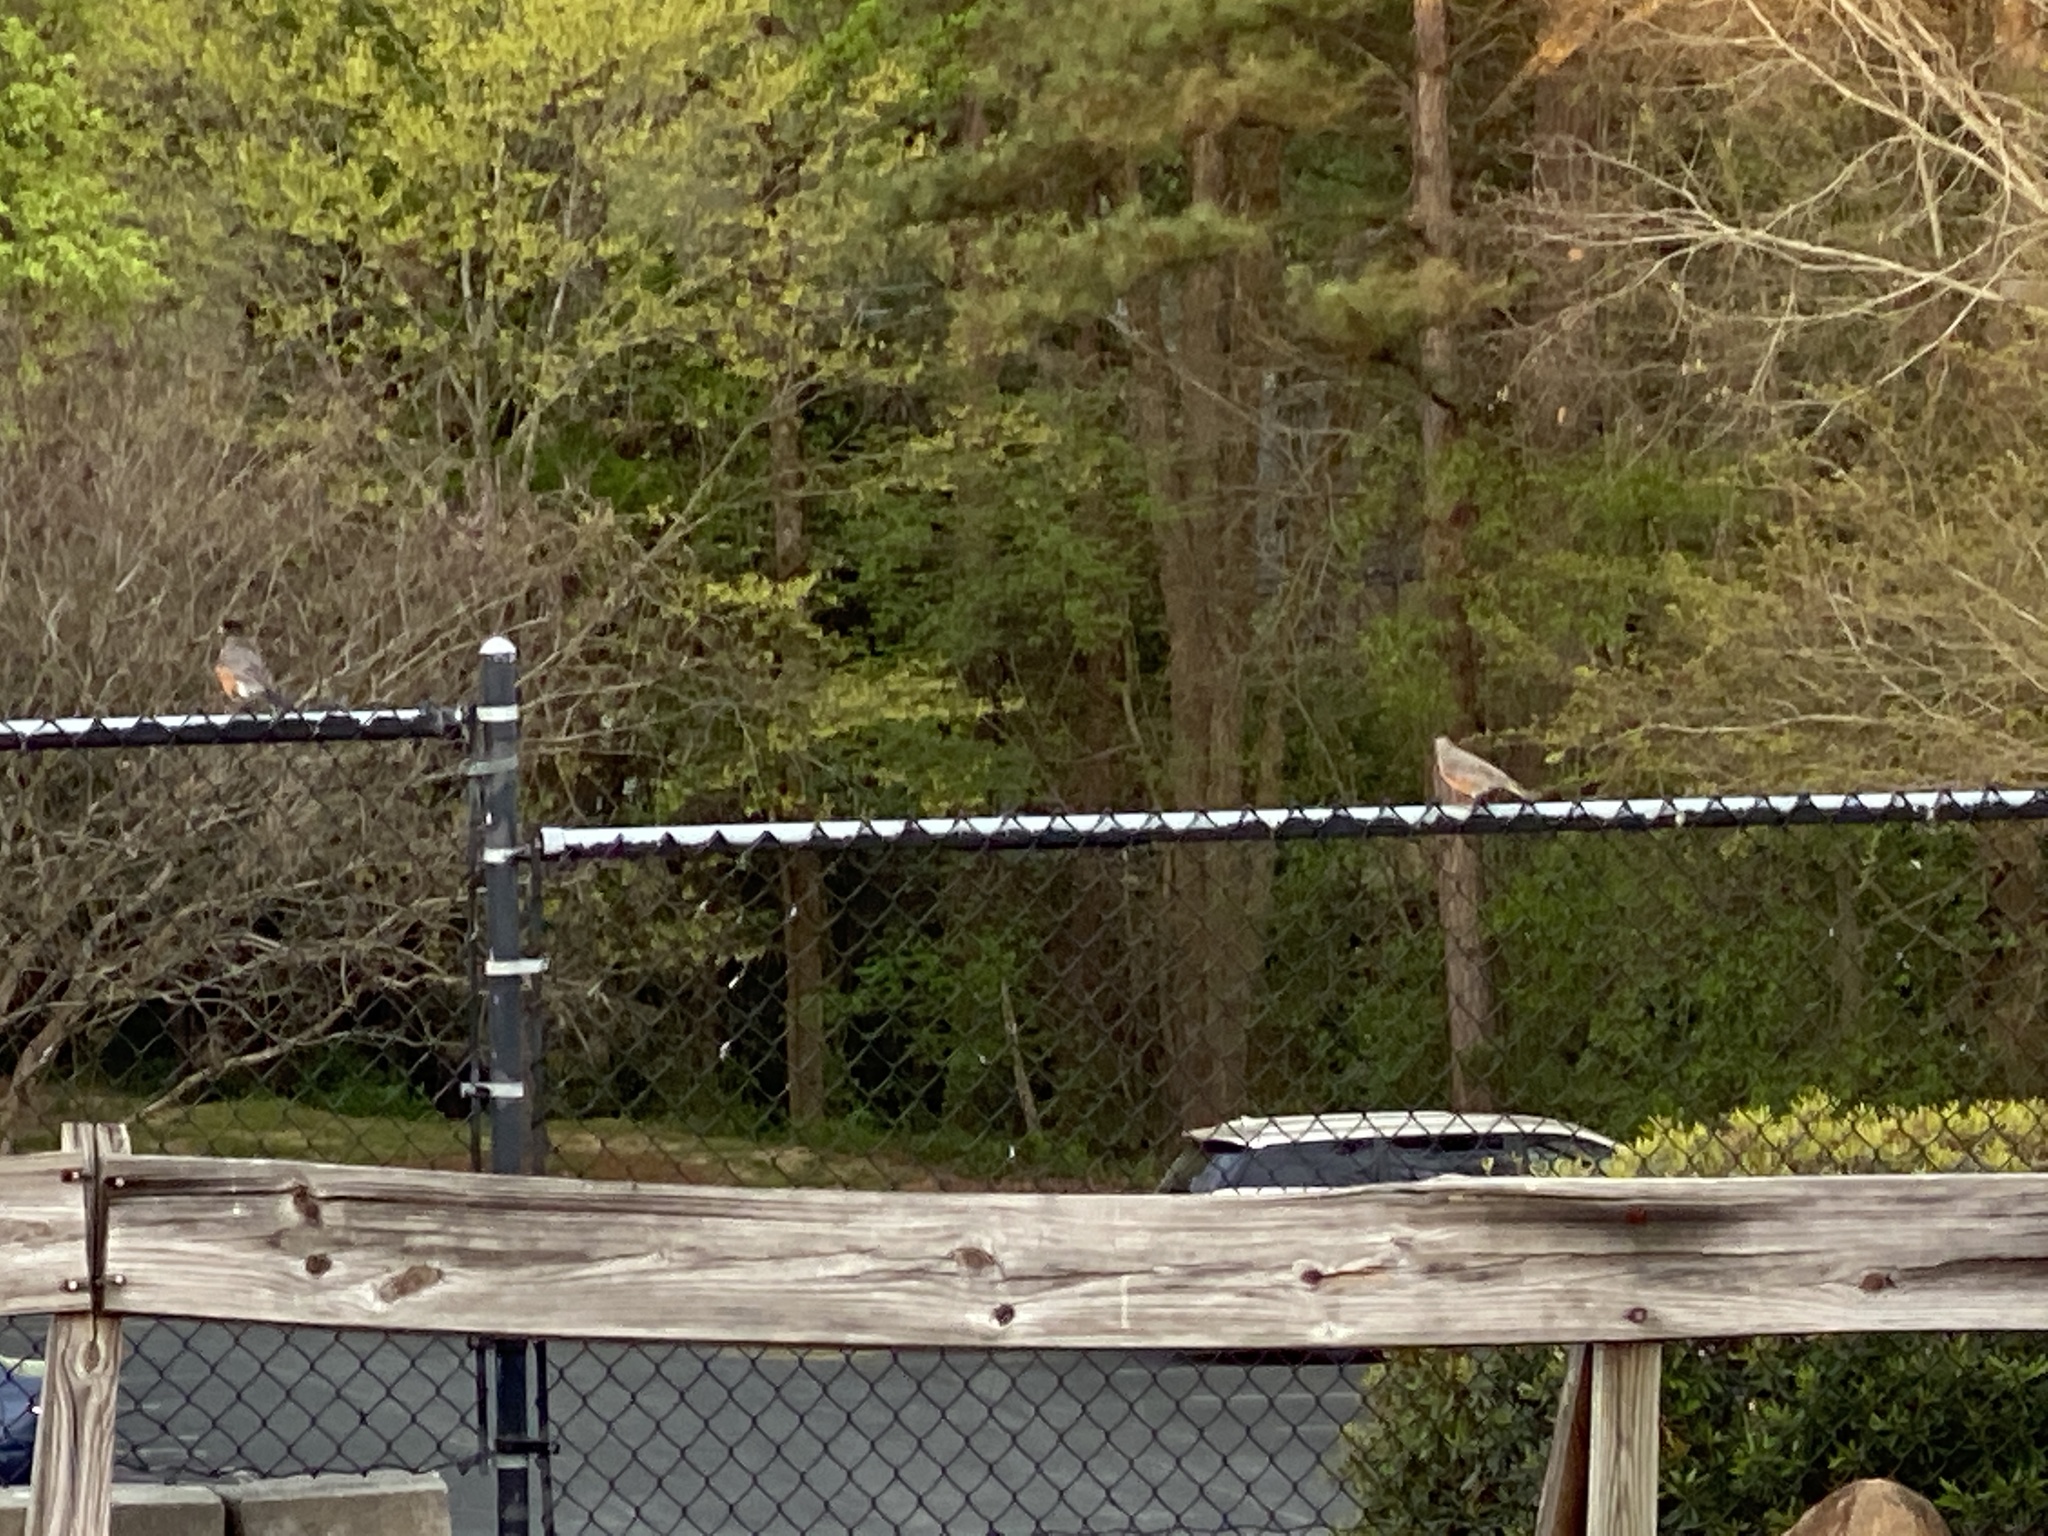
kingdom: Animalia
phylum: Chordata
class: Aves
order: Passeriformes
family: Turdidae
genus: Turdus
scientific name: Turdus migratorius
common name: American robin
